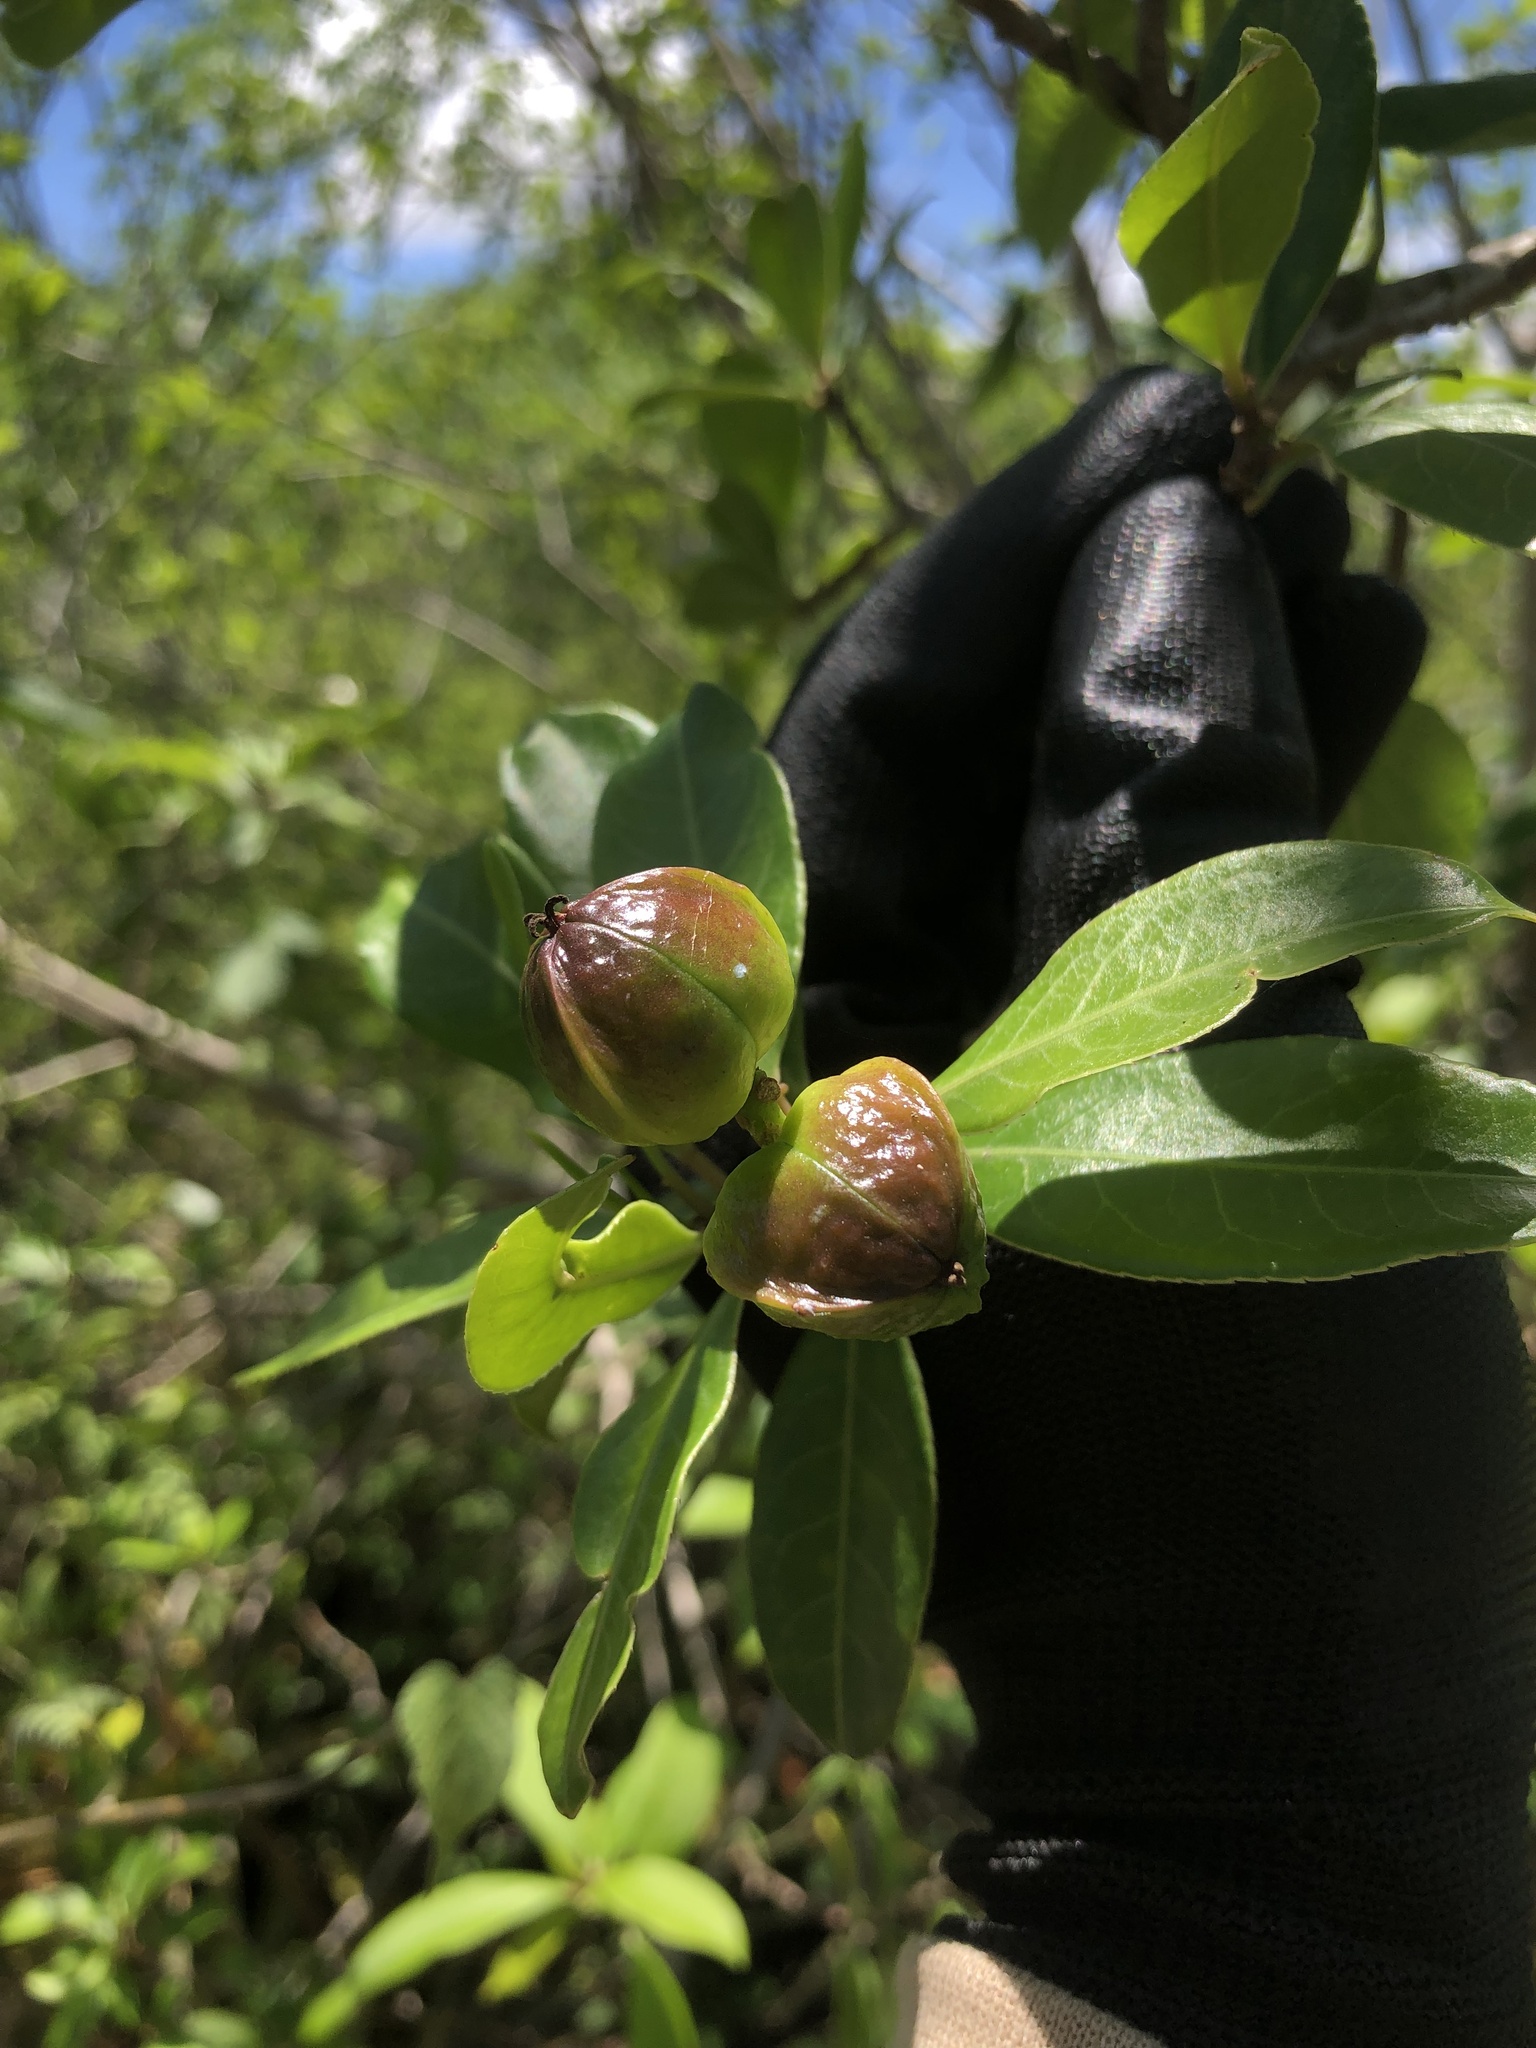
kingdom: Plantae
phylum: Tracheophyta
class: Magnoliopsida
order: Malpighiales
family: Euphorbiaceae
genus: Sapium
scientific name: Sapium argutum
